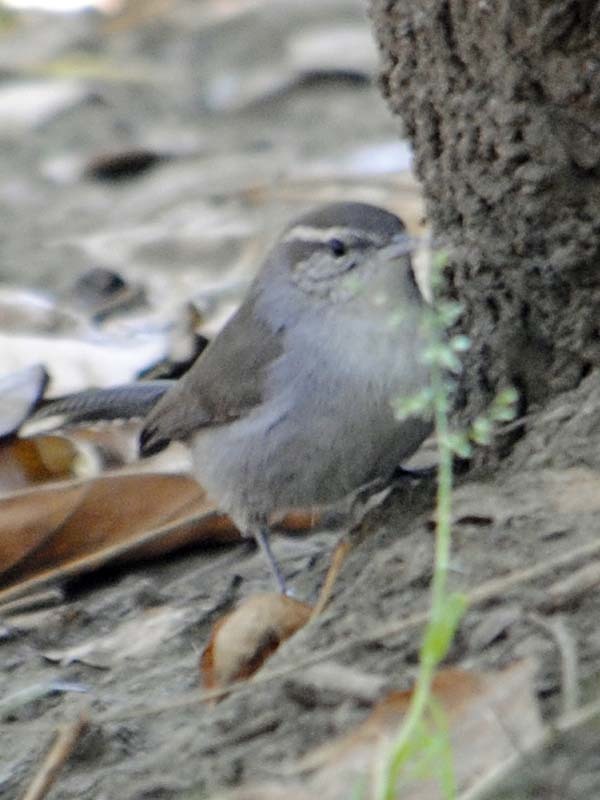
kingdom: Animalia
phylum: Chordata
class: Aves
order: Passeriformes
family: Troglodytidae
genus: Thryomanes
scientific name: Thryomanes bewickii
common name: Bewick's wren
